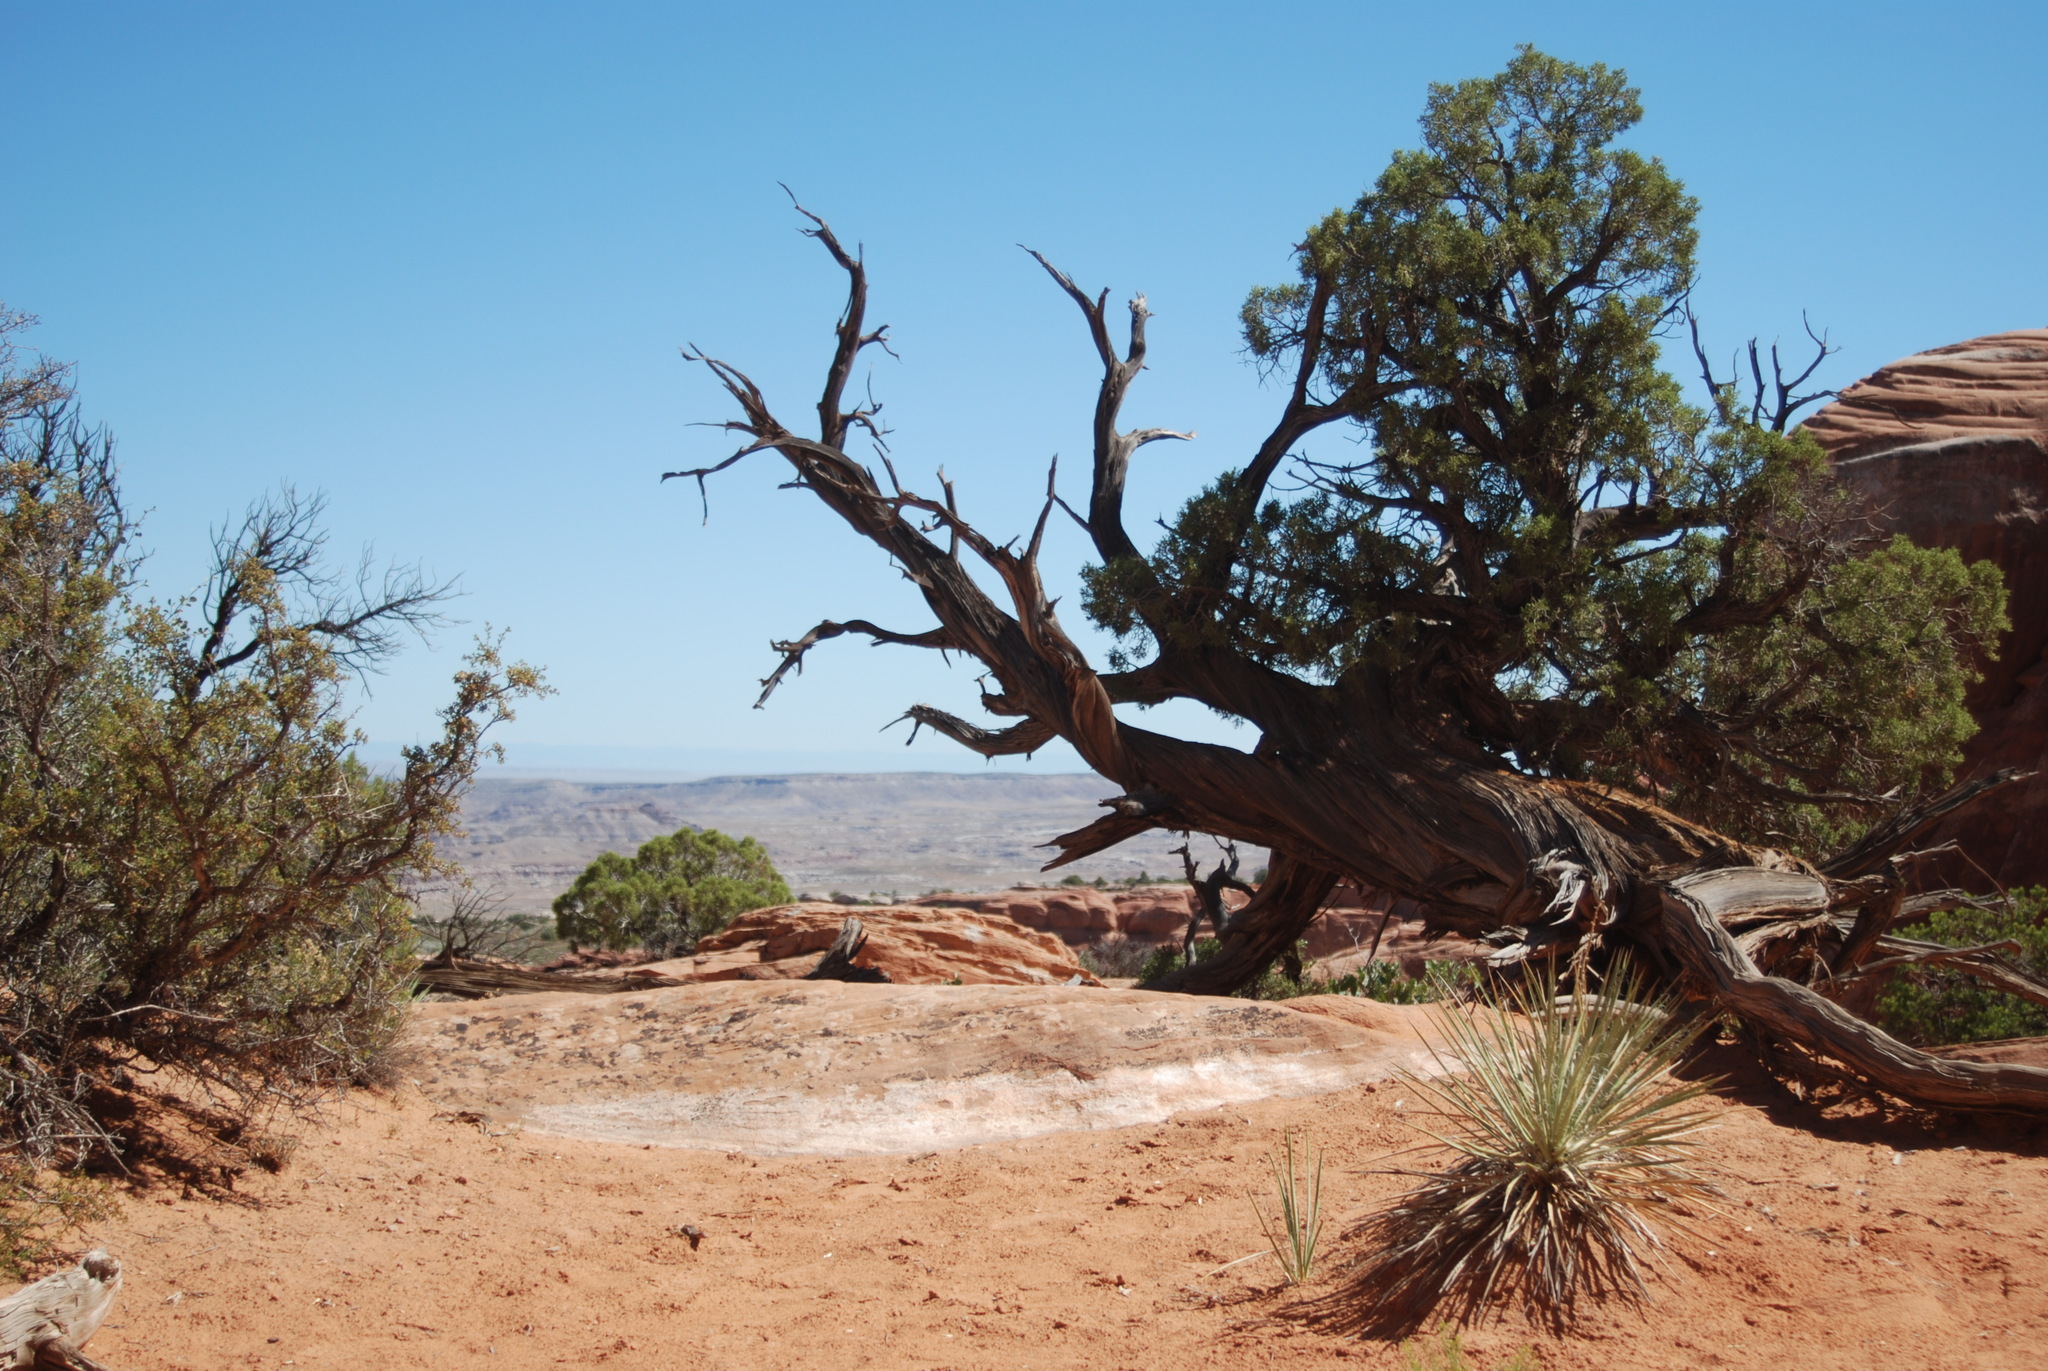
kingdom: Plantae
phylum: Tracheophyta
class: Pinopsida
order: Pinales
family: Cupressaceae
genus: Juniperus
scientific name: Juniperus osteosperma
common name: Utah juniper
